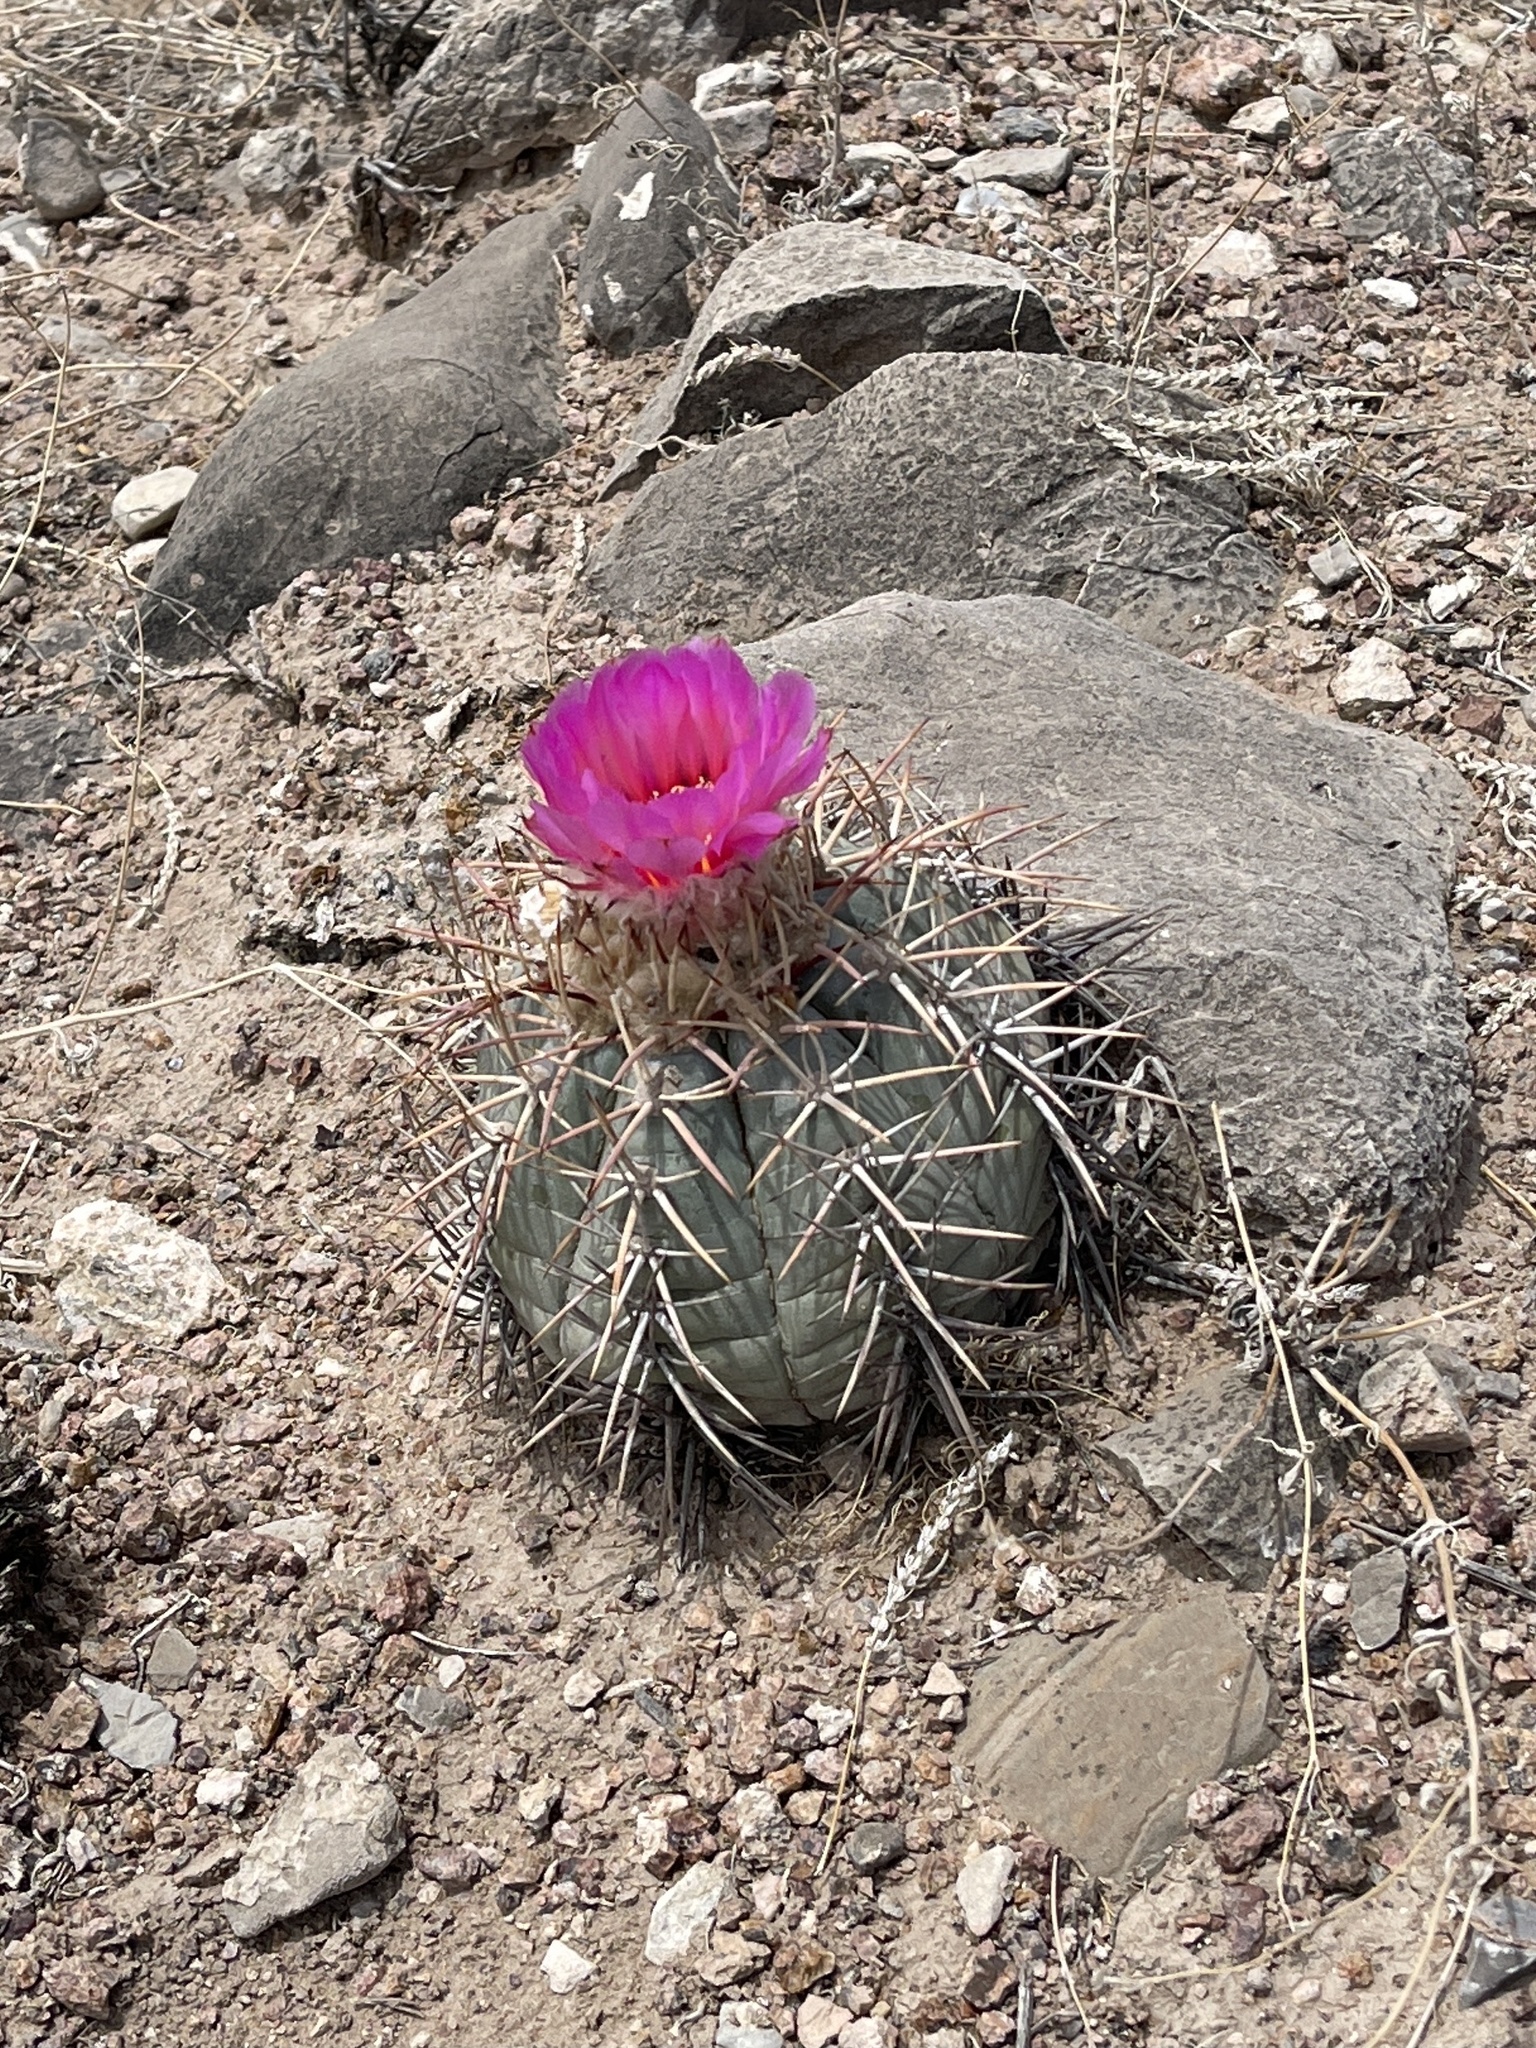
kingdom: Plantae
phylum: Tracheophyta
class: Magnoliopsida
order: Caryophyllales
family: Cactaceae
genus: Echinocactus
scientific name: Echinocactus horizonthalonius
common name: Devilshead
